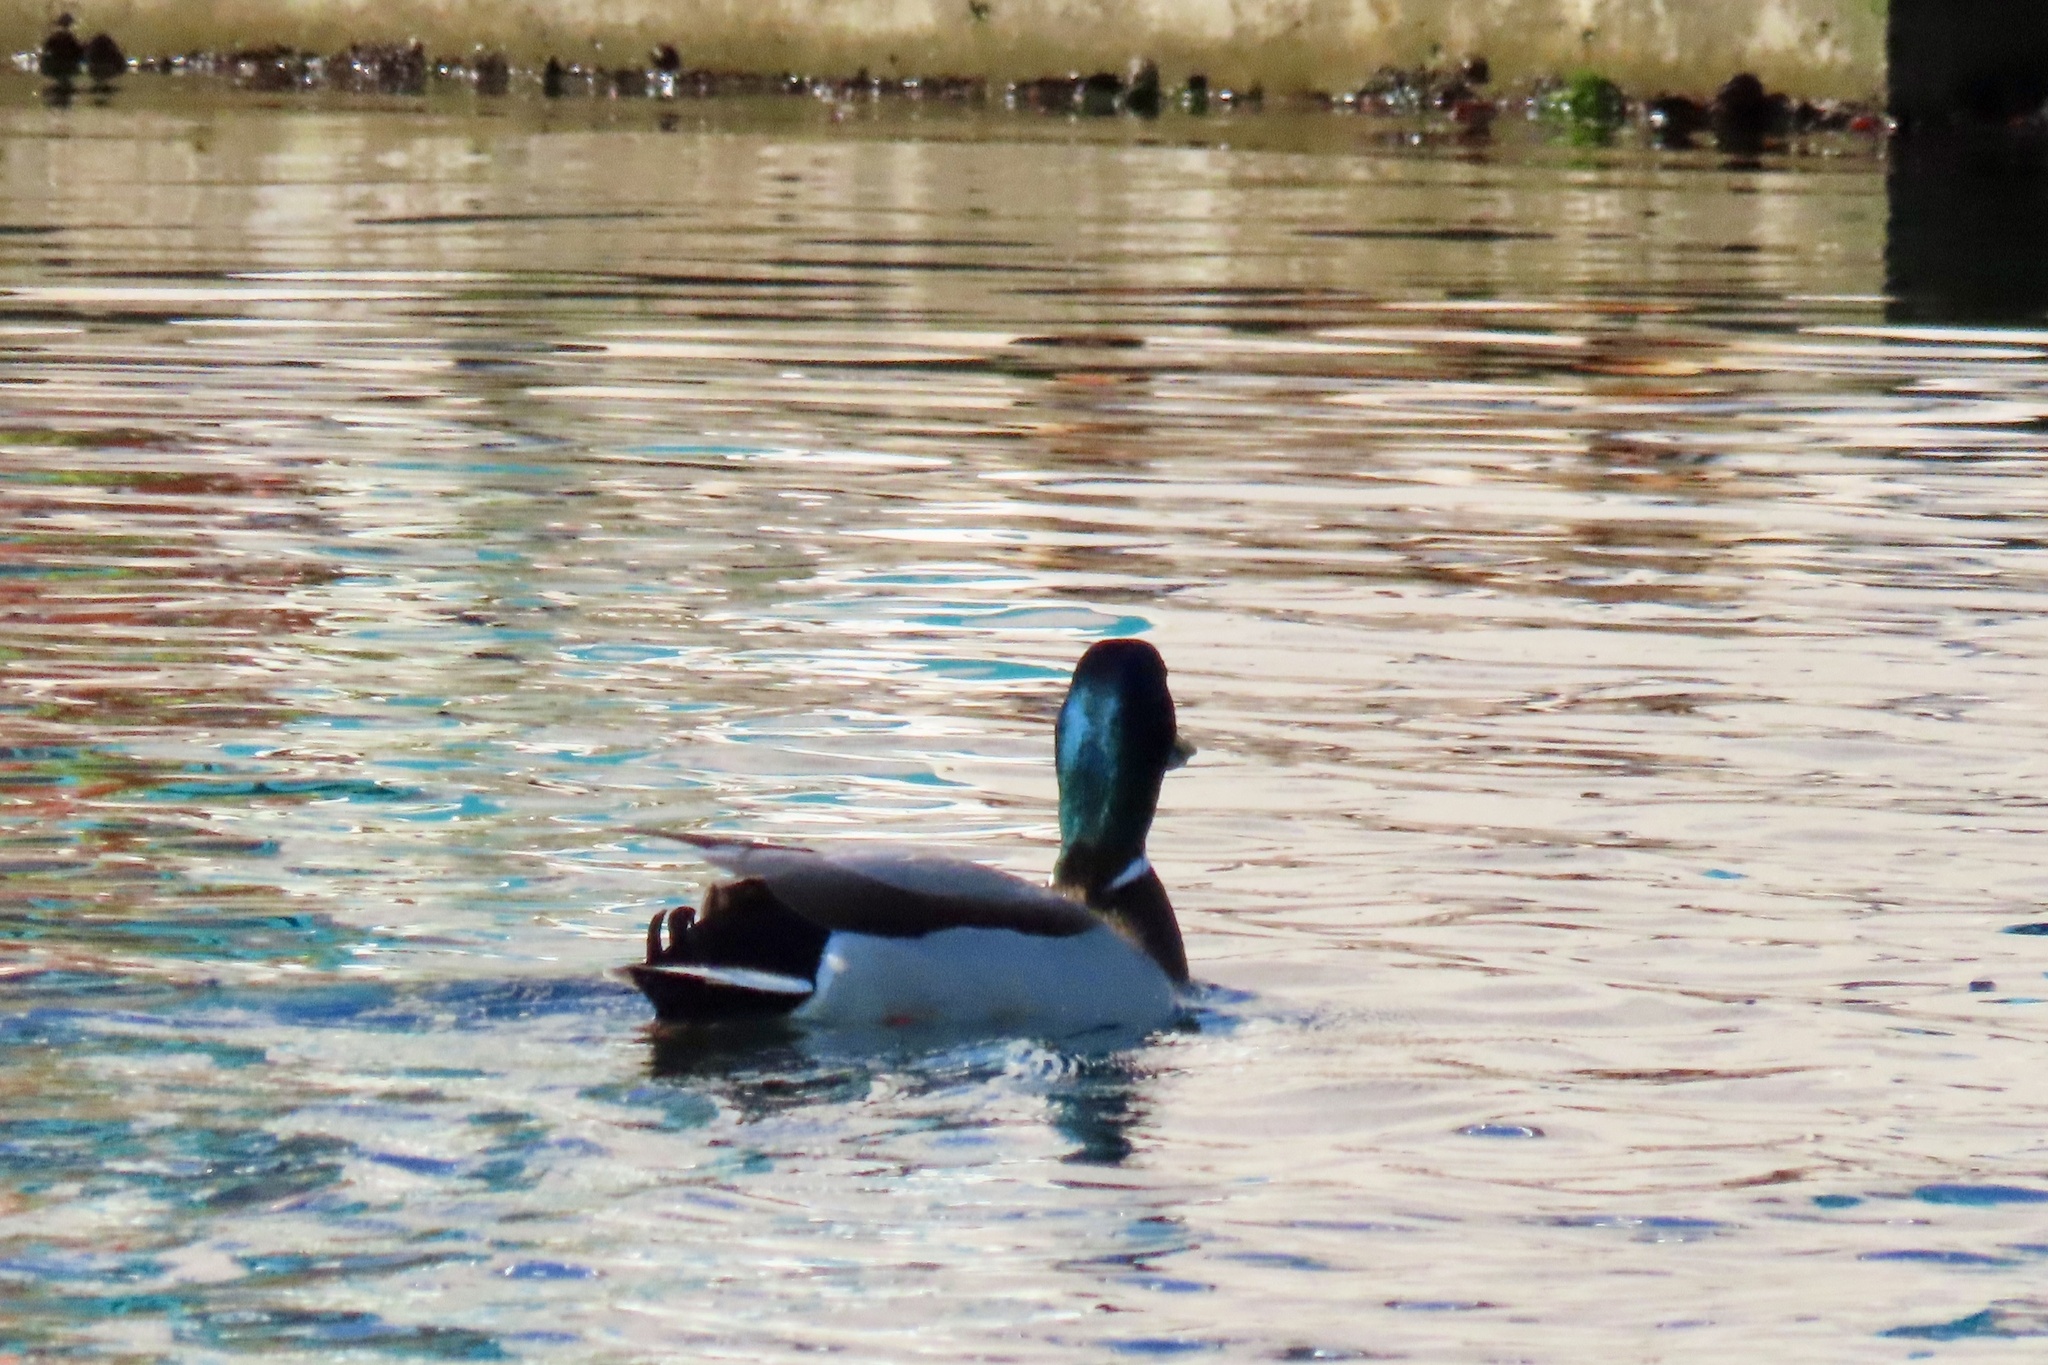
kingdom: Animalia
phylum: Chordata
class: Aves
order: Anseriformes
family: Anatidae
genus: Anas
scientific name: Anas platyrhynchos
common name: Mallard
